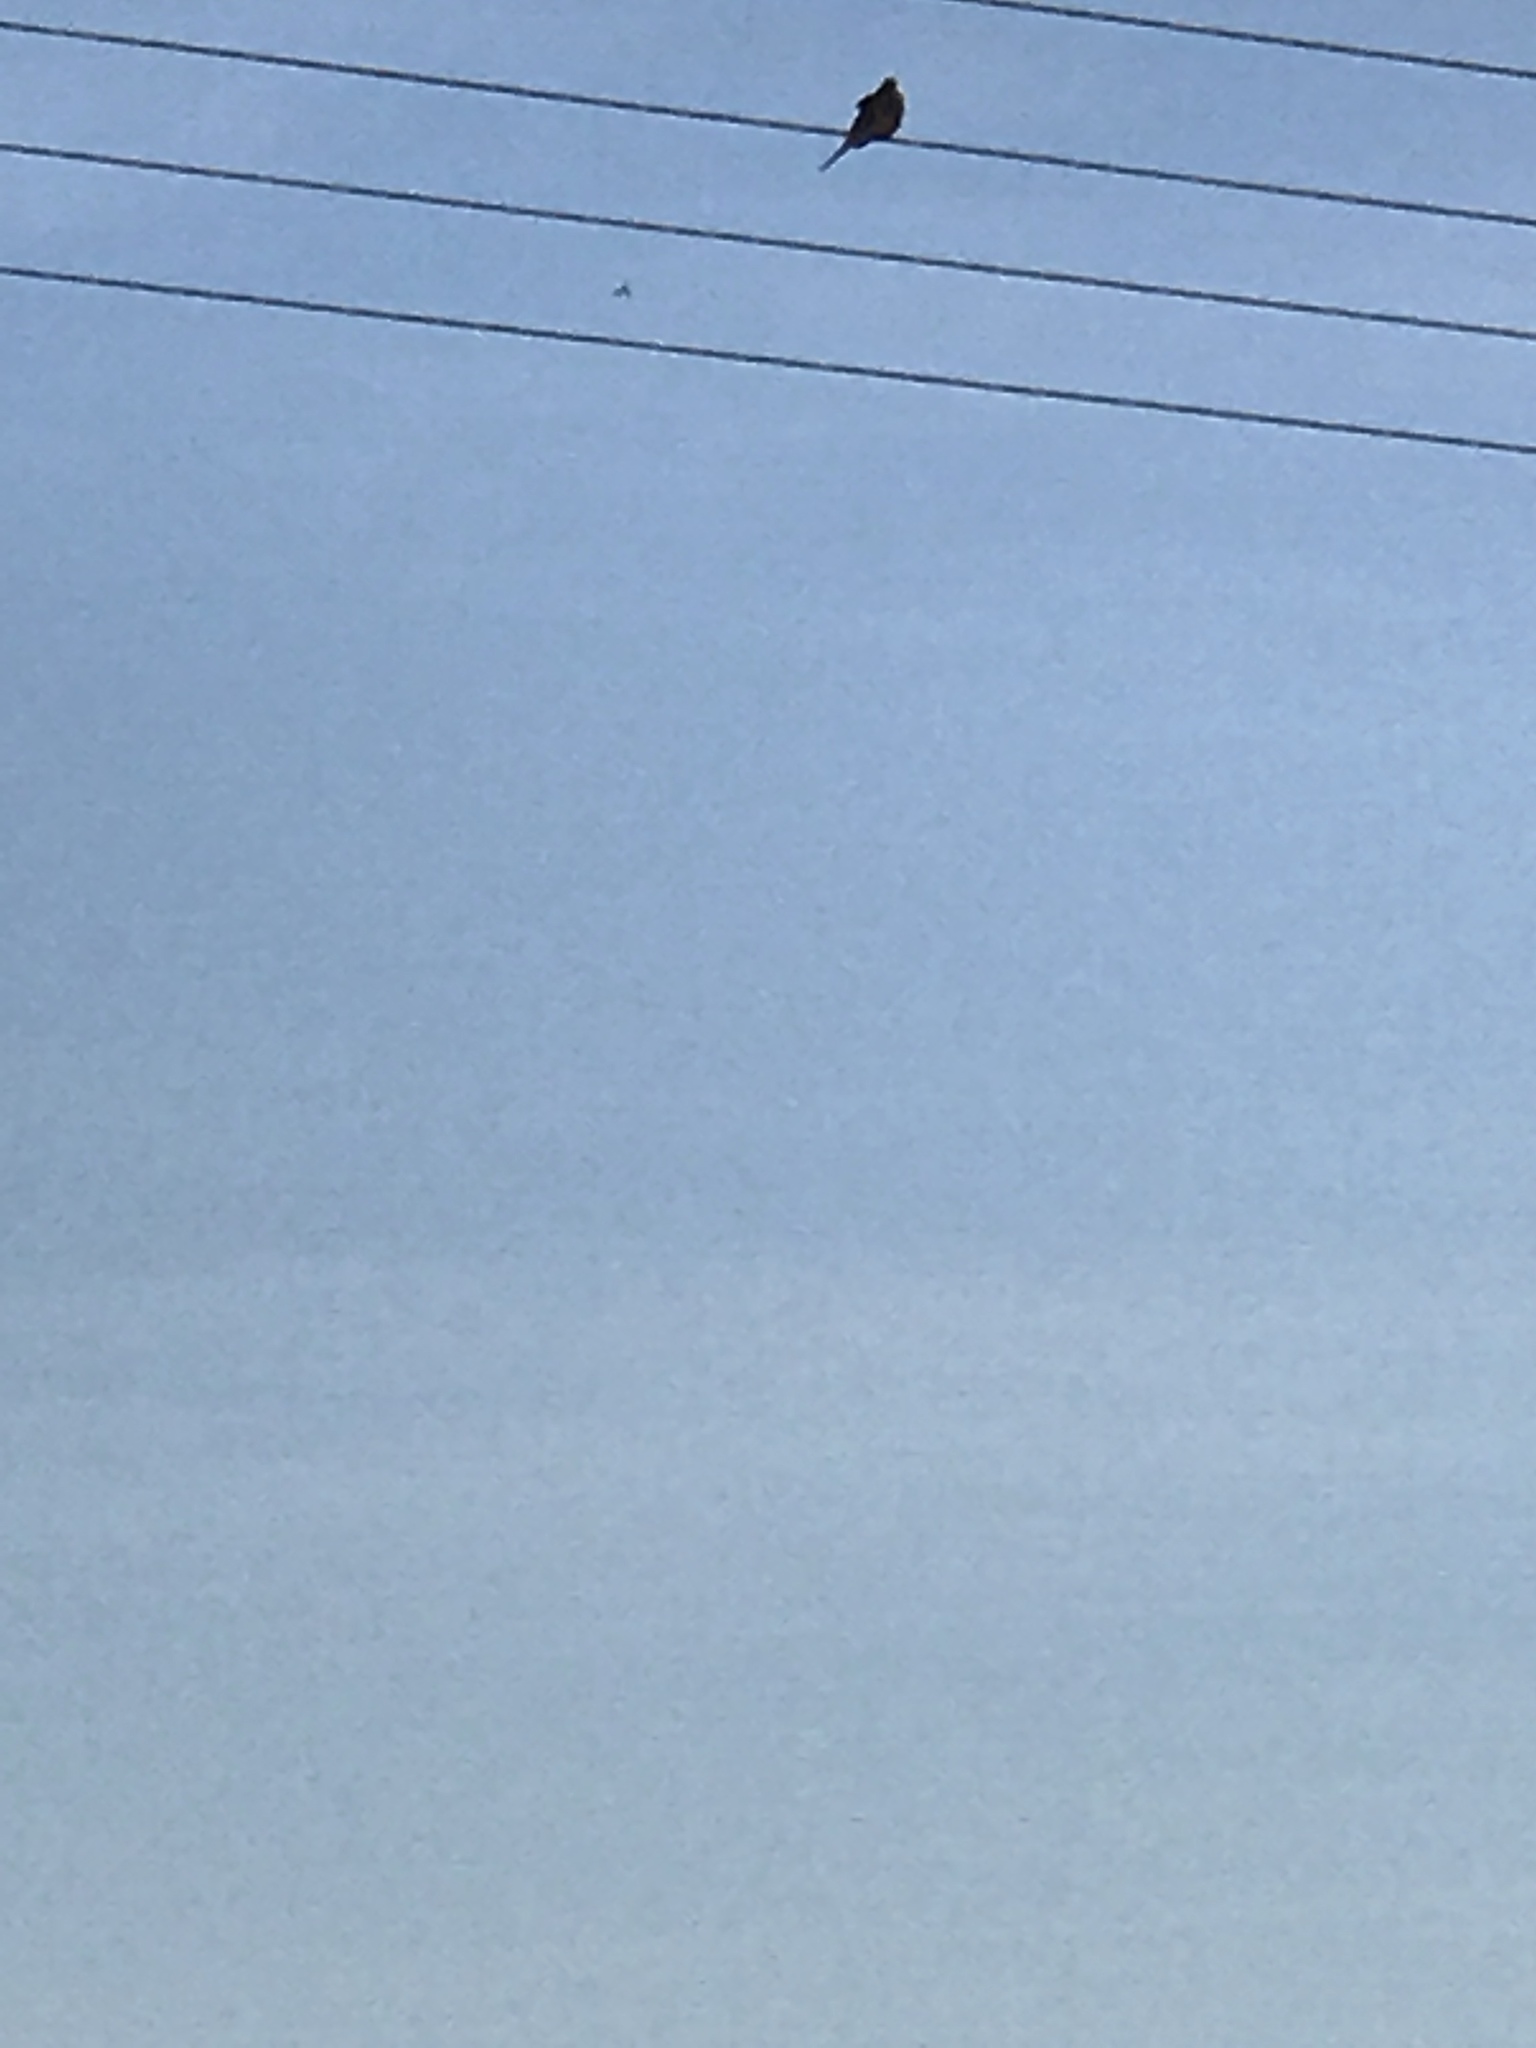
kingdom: Animalia
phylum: Chordata
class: Aves
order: Columbiformes
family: Columbidae
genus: Zenaida
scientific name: Zenaida macroura
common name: Mourning dove
